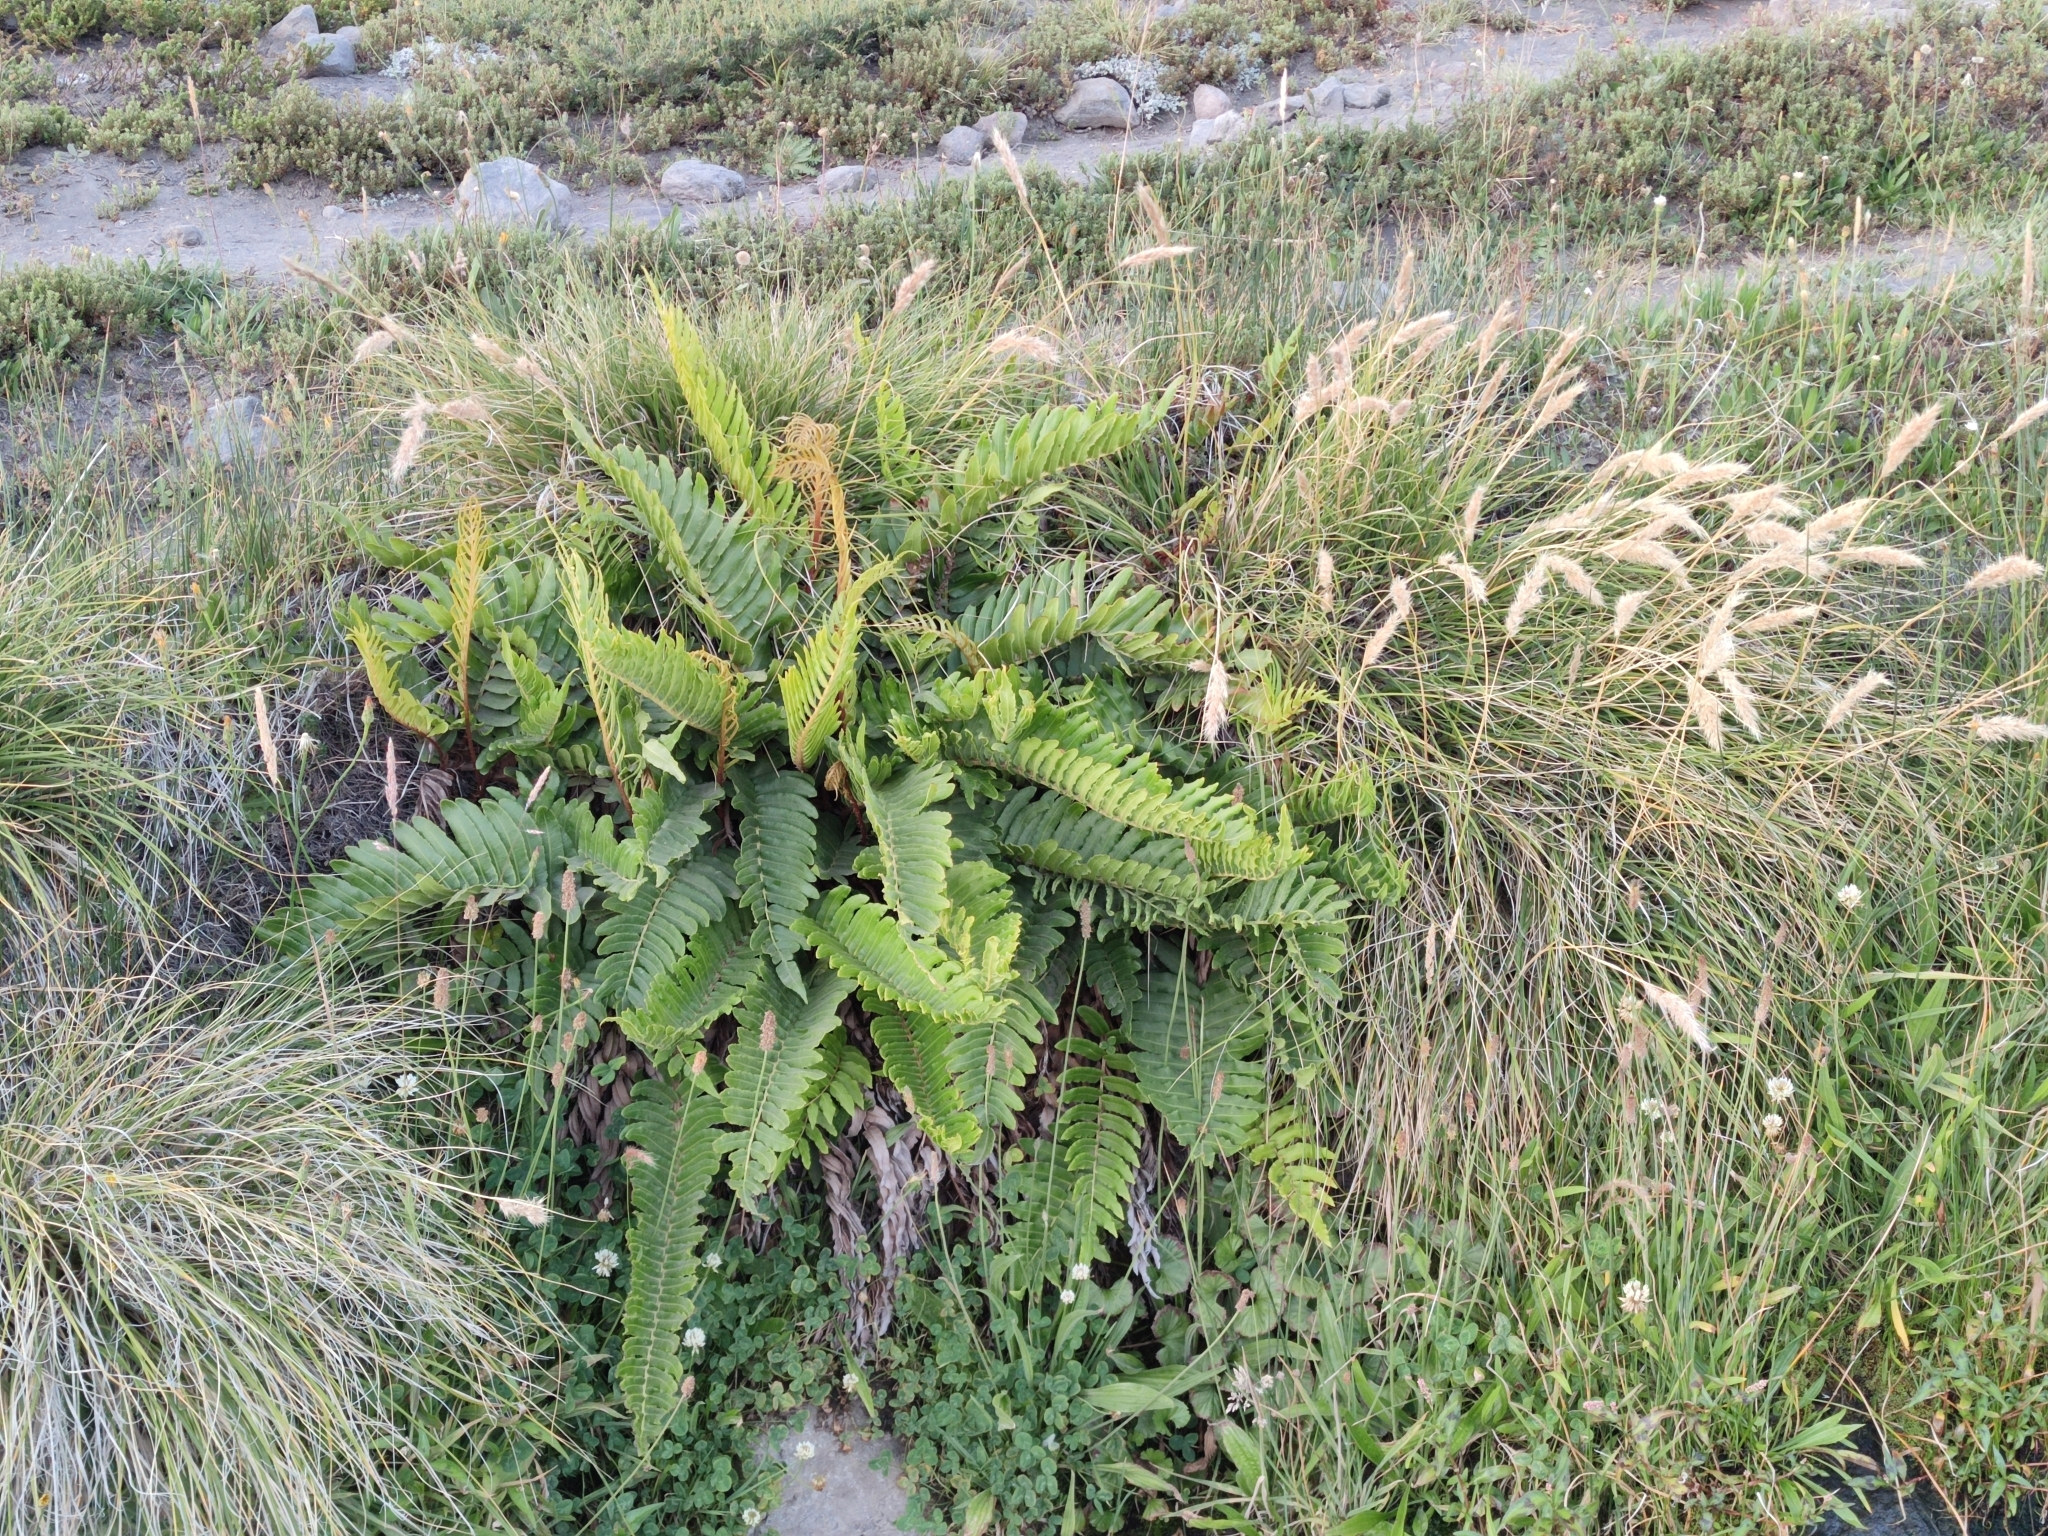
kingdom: Plantae
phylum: Tracheophyta
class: Polypodiopsida
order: Polypodiales
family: Blechnaceae
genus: Parablechnum
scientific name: Parablechnum chilense
